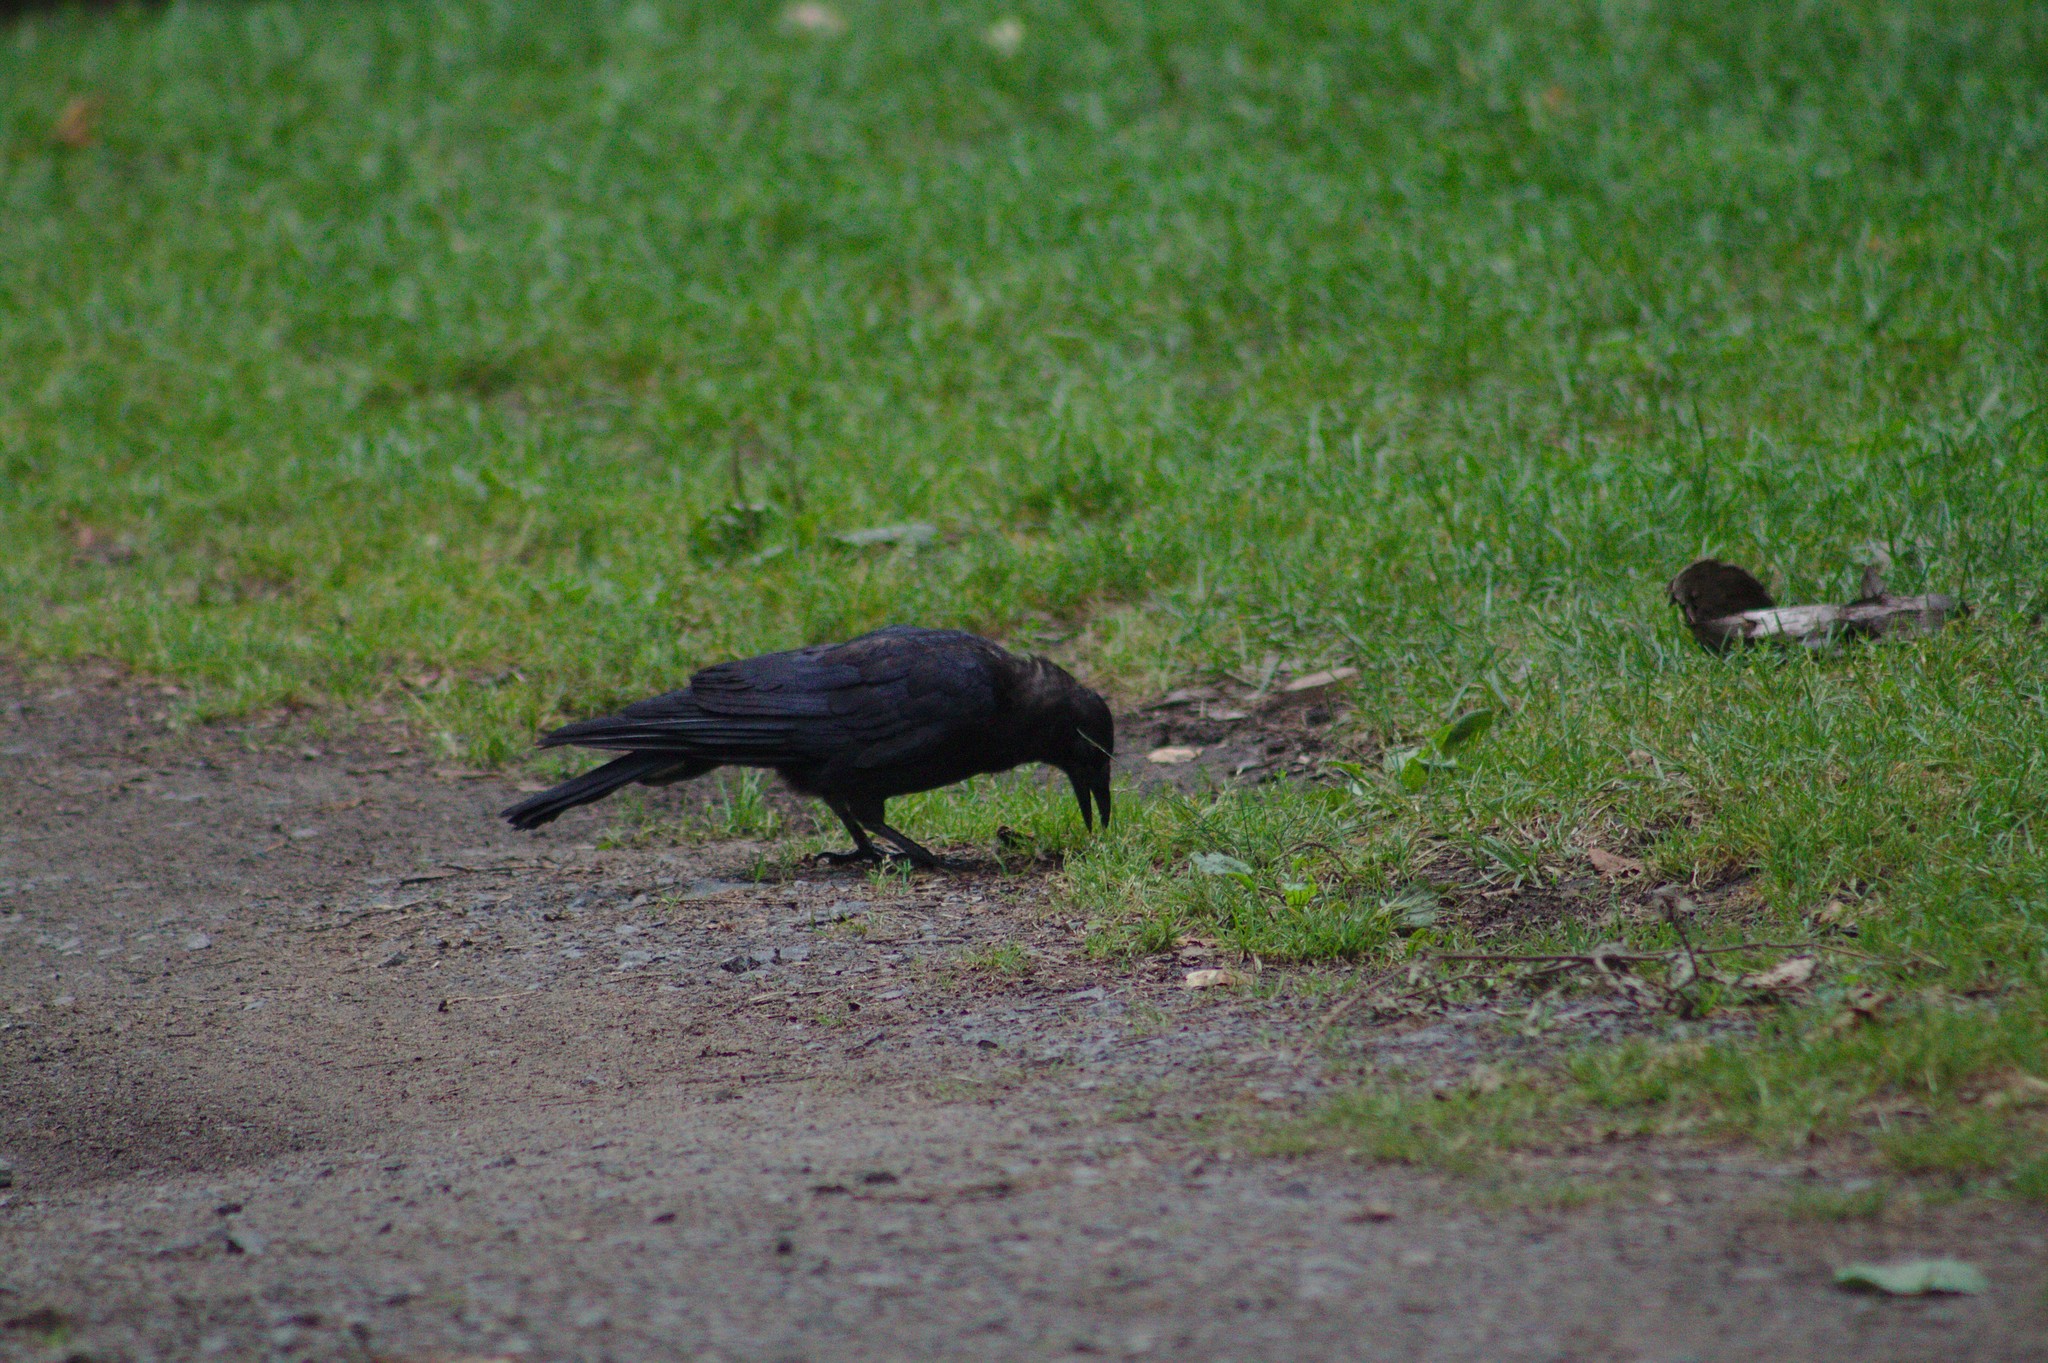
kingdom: Animalia
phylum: Chordata
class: Aves
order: Passeriformes
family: Corvidae
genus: Corvus
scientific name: Corvus brachyrhynchos
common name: American crow
